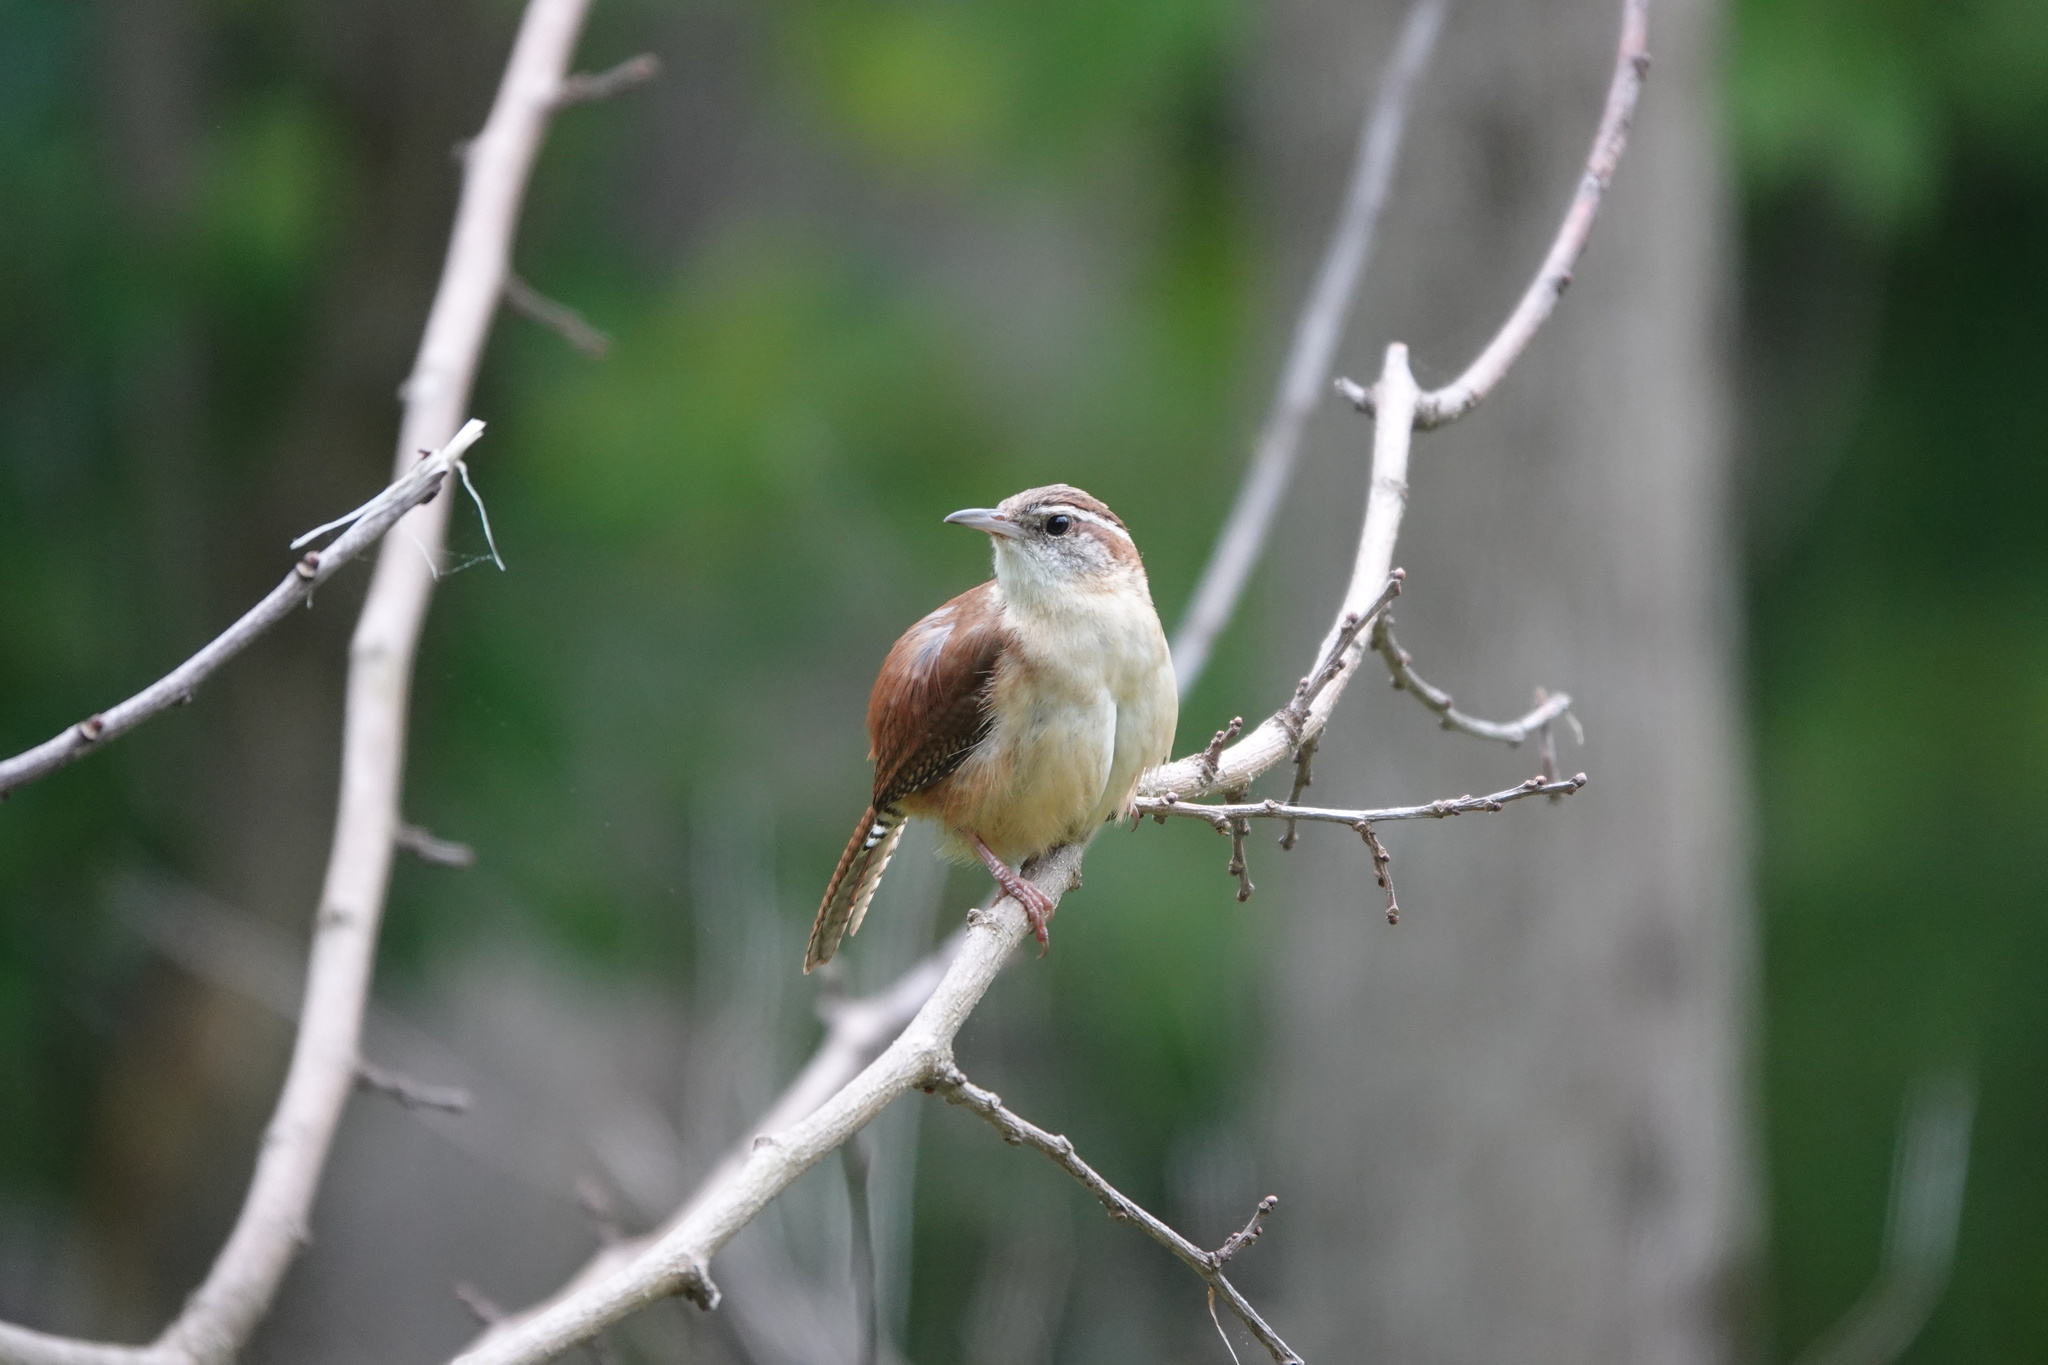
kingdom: Animalia
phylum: Chordata
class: Aves
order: Passeriformes
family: Troglodytidae
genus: Thryothorus
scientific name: Thryothorus ludovicianus
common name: Carolina wren
